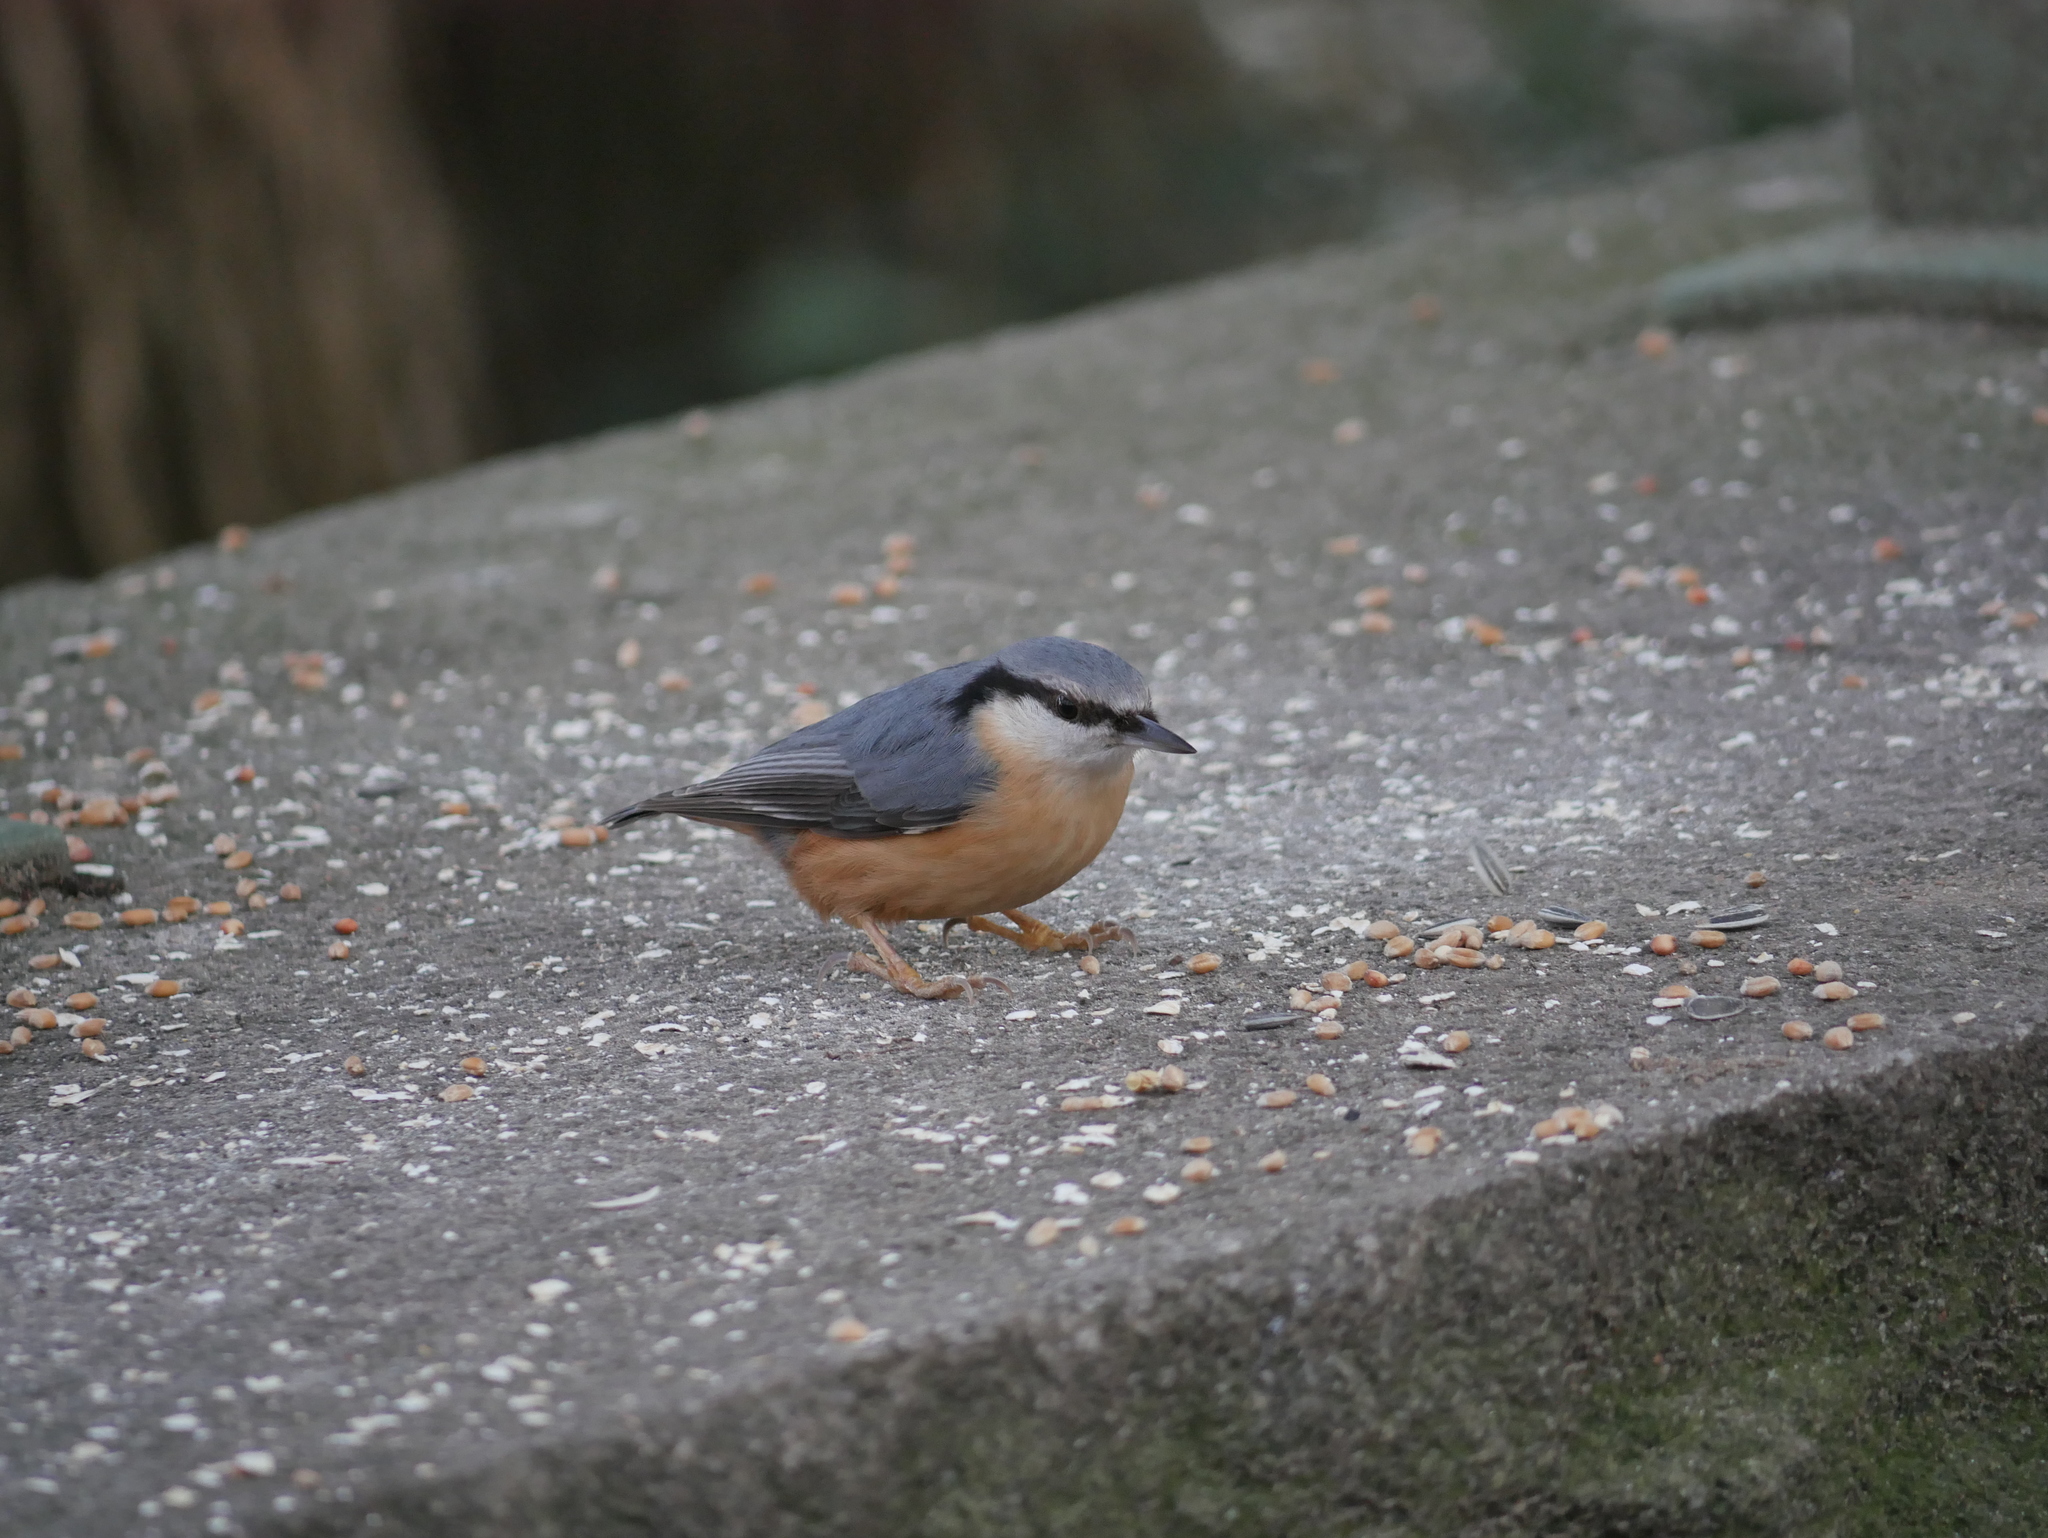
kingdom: Animalia
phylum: Chordata
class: Aves
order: Passeriformes
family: Sittidae
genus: Sitta
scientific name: Sitta europaea
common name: Eurasian nuthatch
